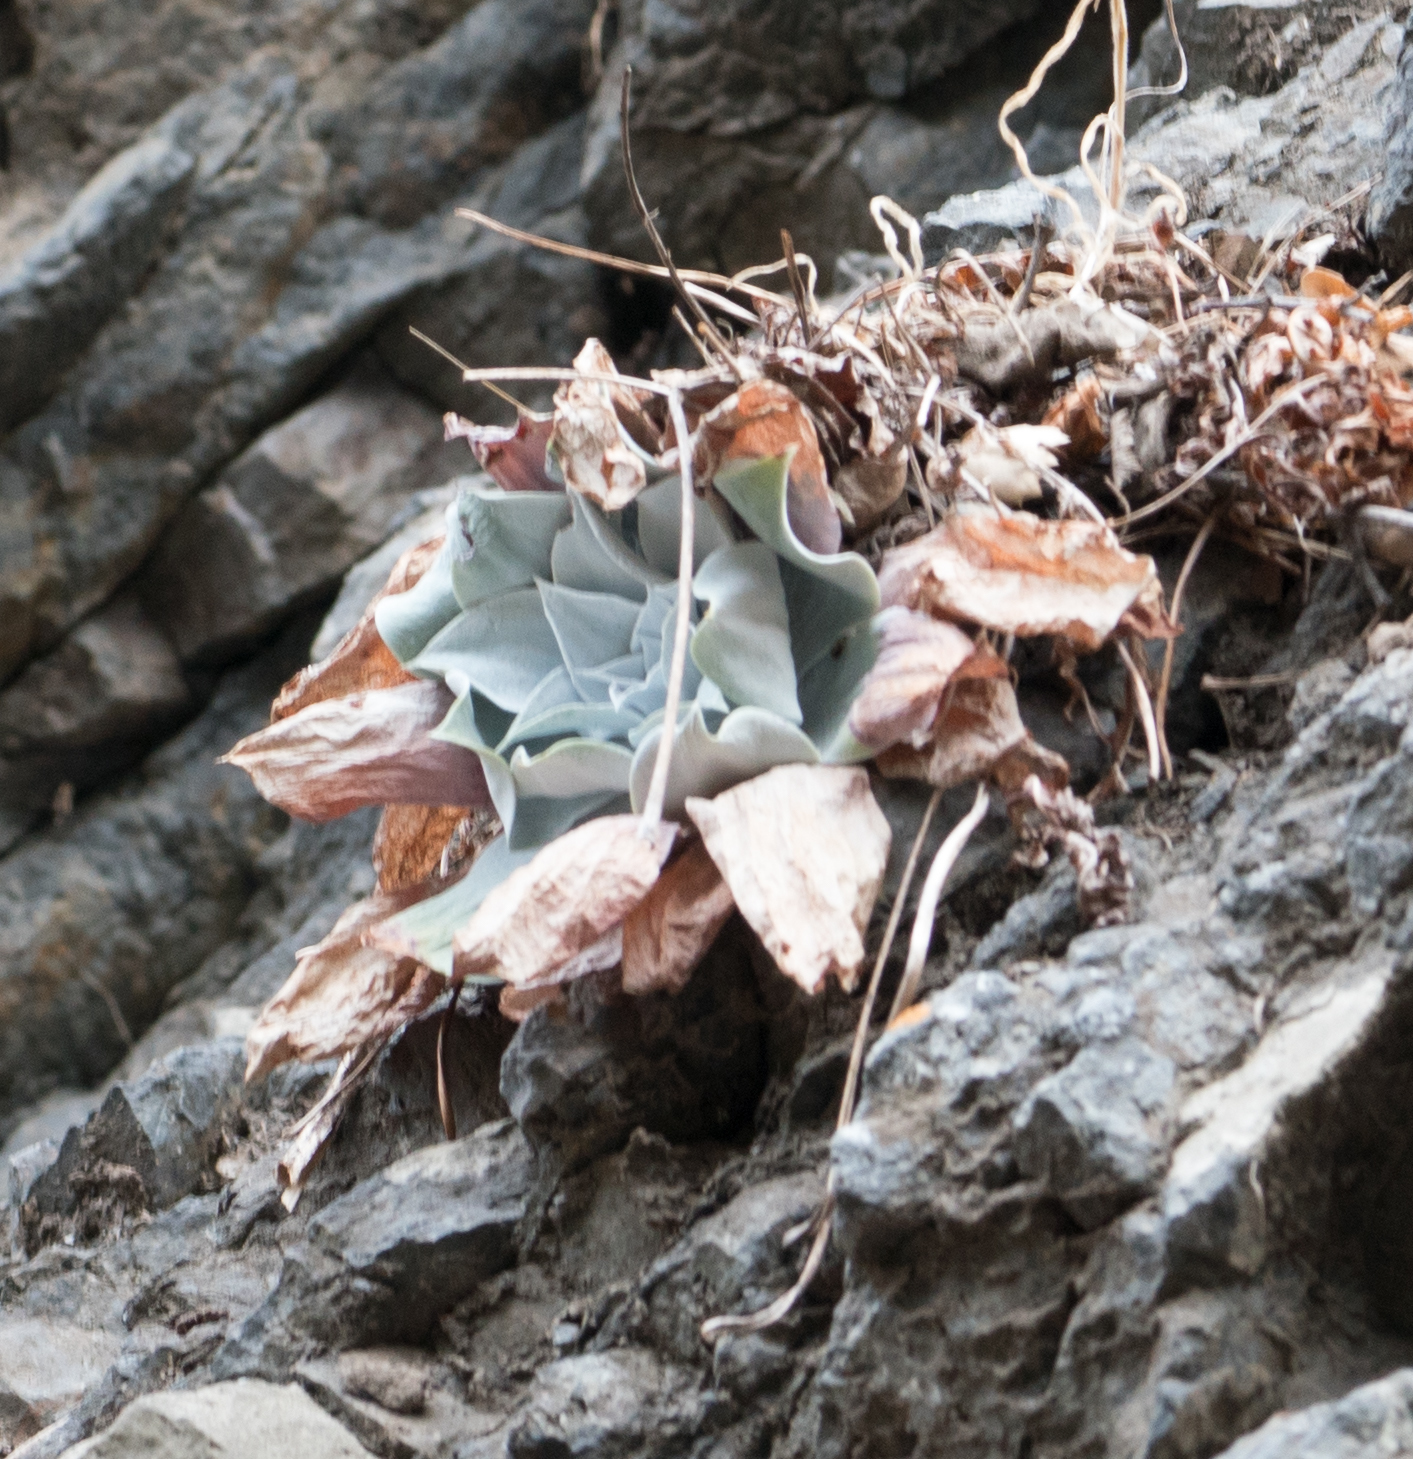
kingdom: Plantae
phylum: Tracheophyta
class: Magnoliopsida
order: Saxifragales
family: Crassulaceae
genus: Dudleya
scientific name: Dudleya pulverulenta
